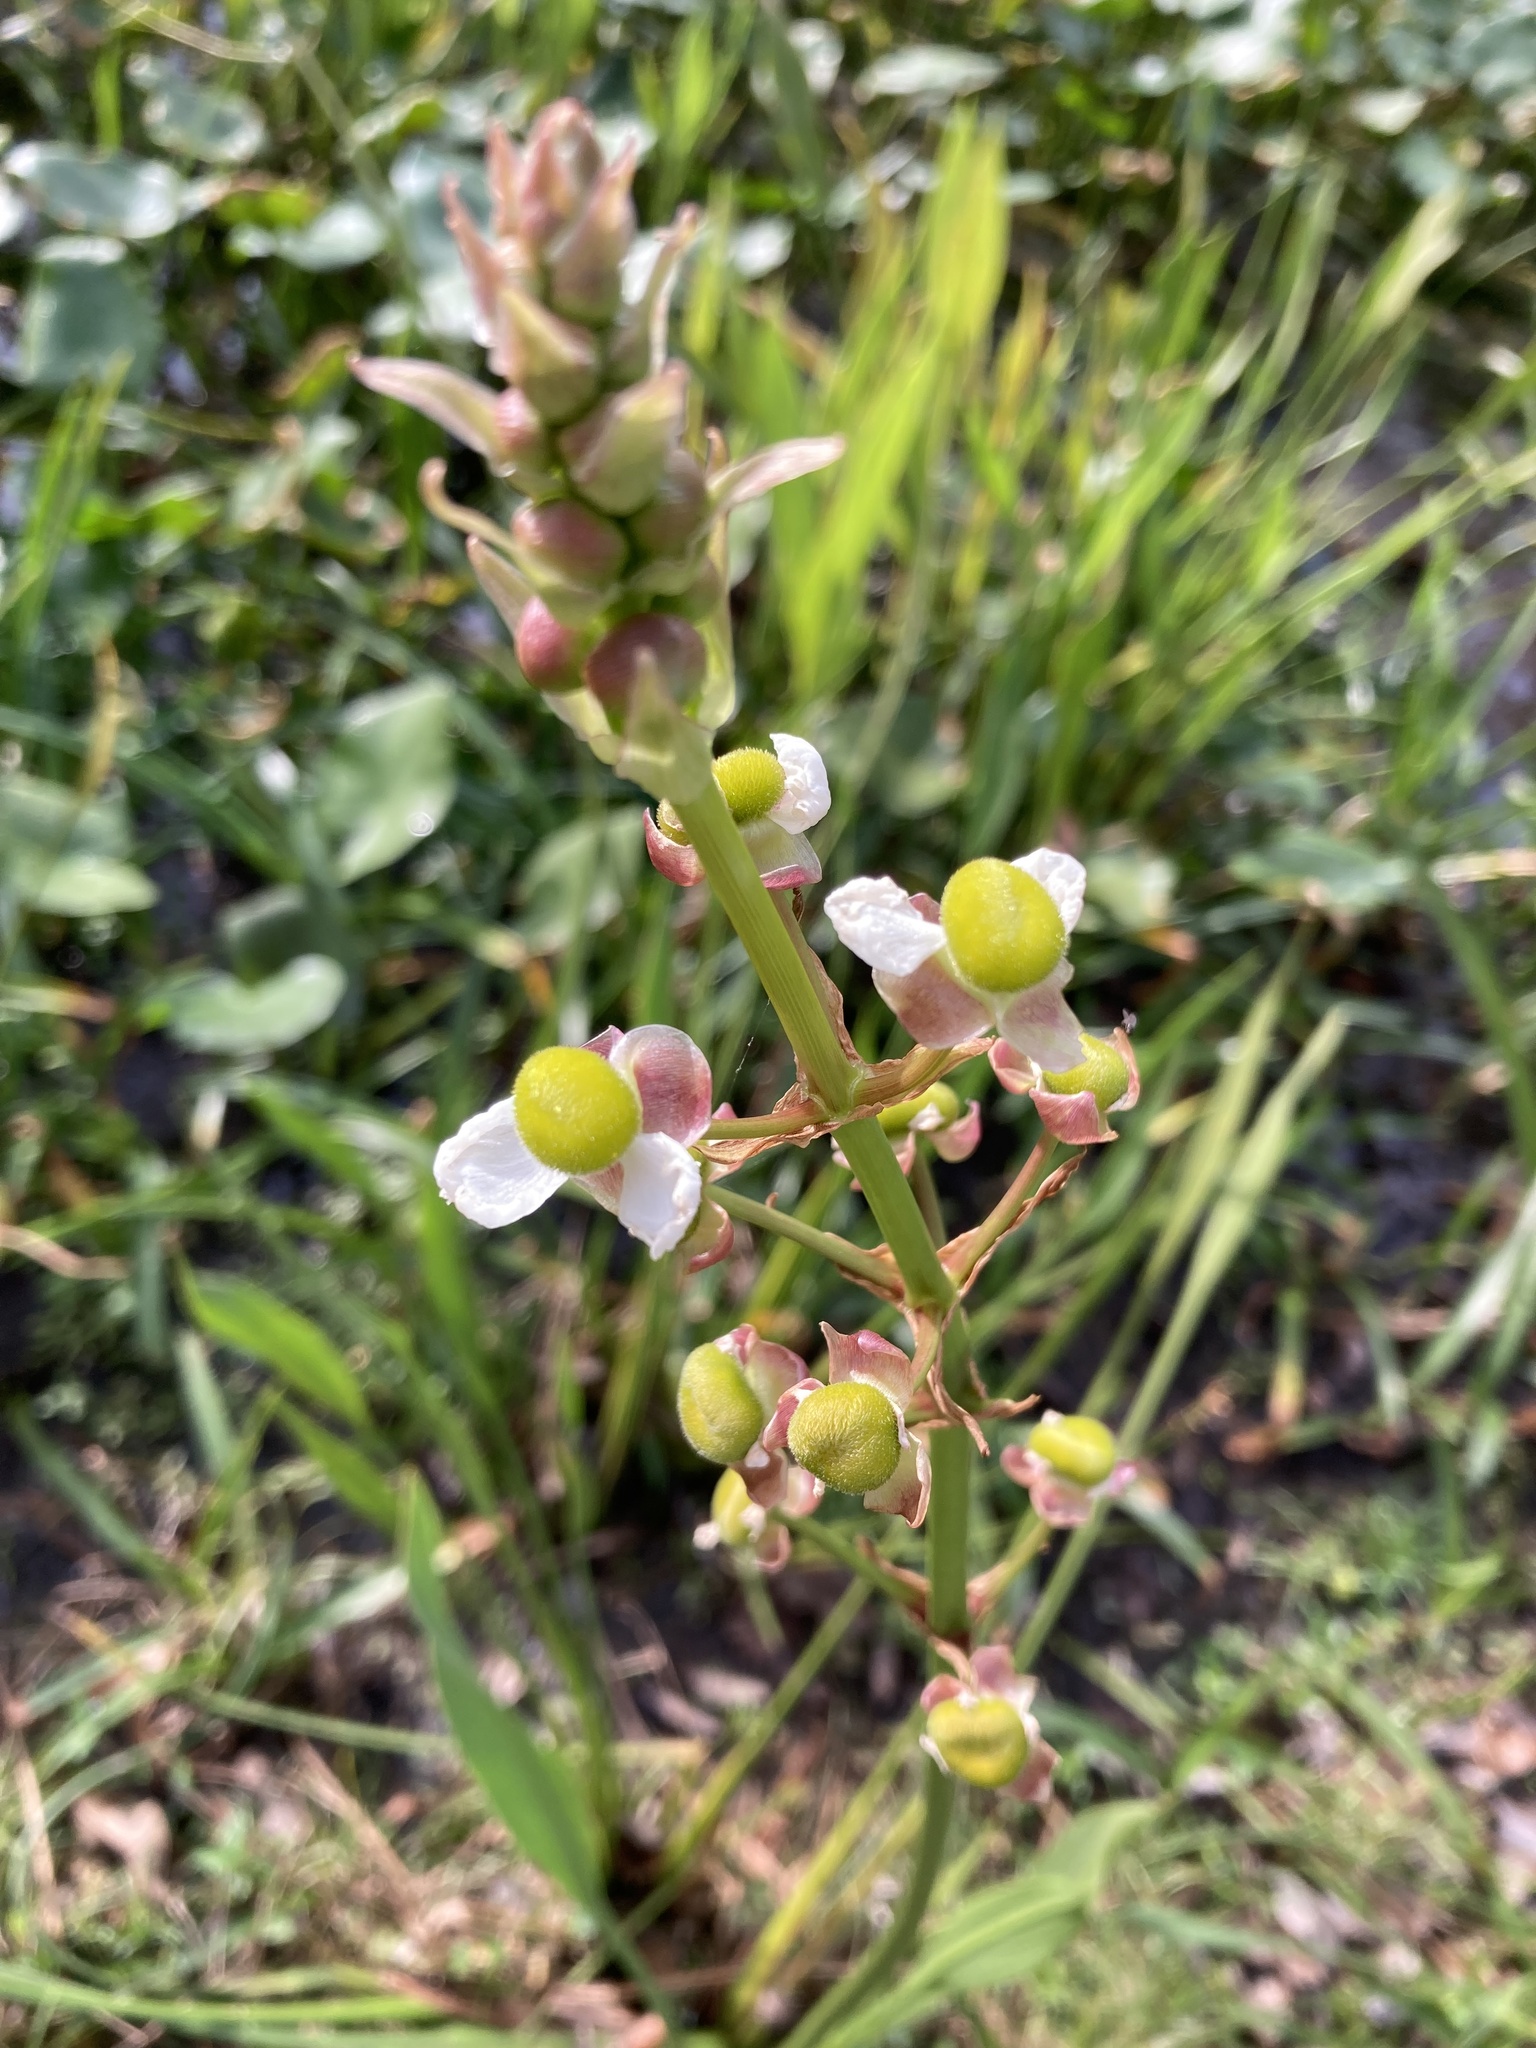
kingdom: Plantae
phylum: Tracheophyta
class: Liliopsida
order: Alismatales
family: Alismataceae
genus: Sagittaria
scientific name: Sagittaria lancifolia
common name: Lance-leaf arrowhead
